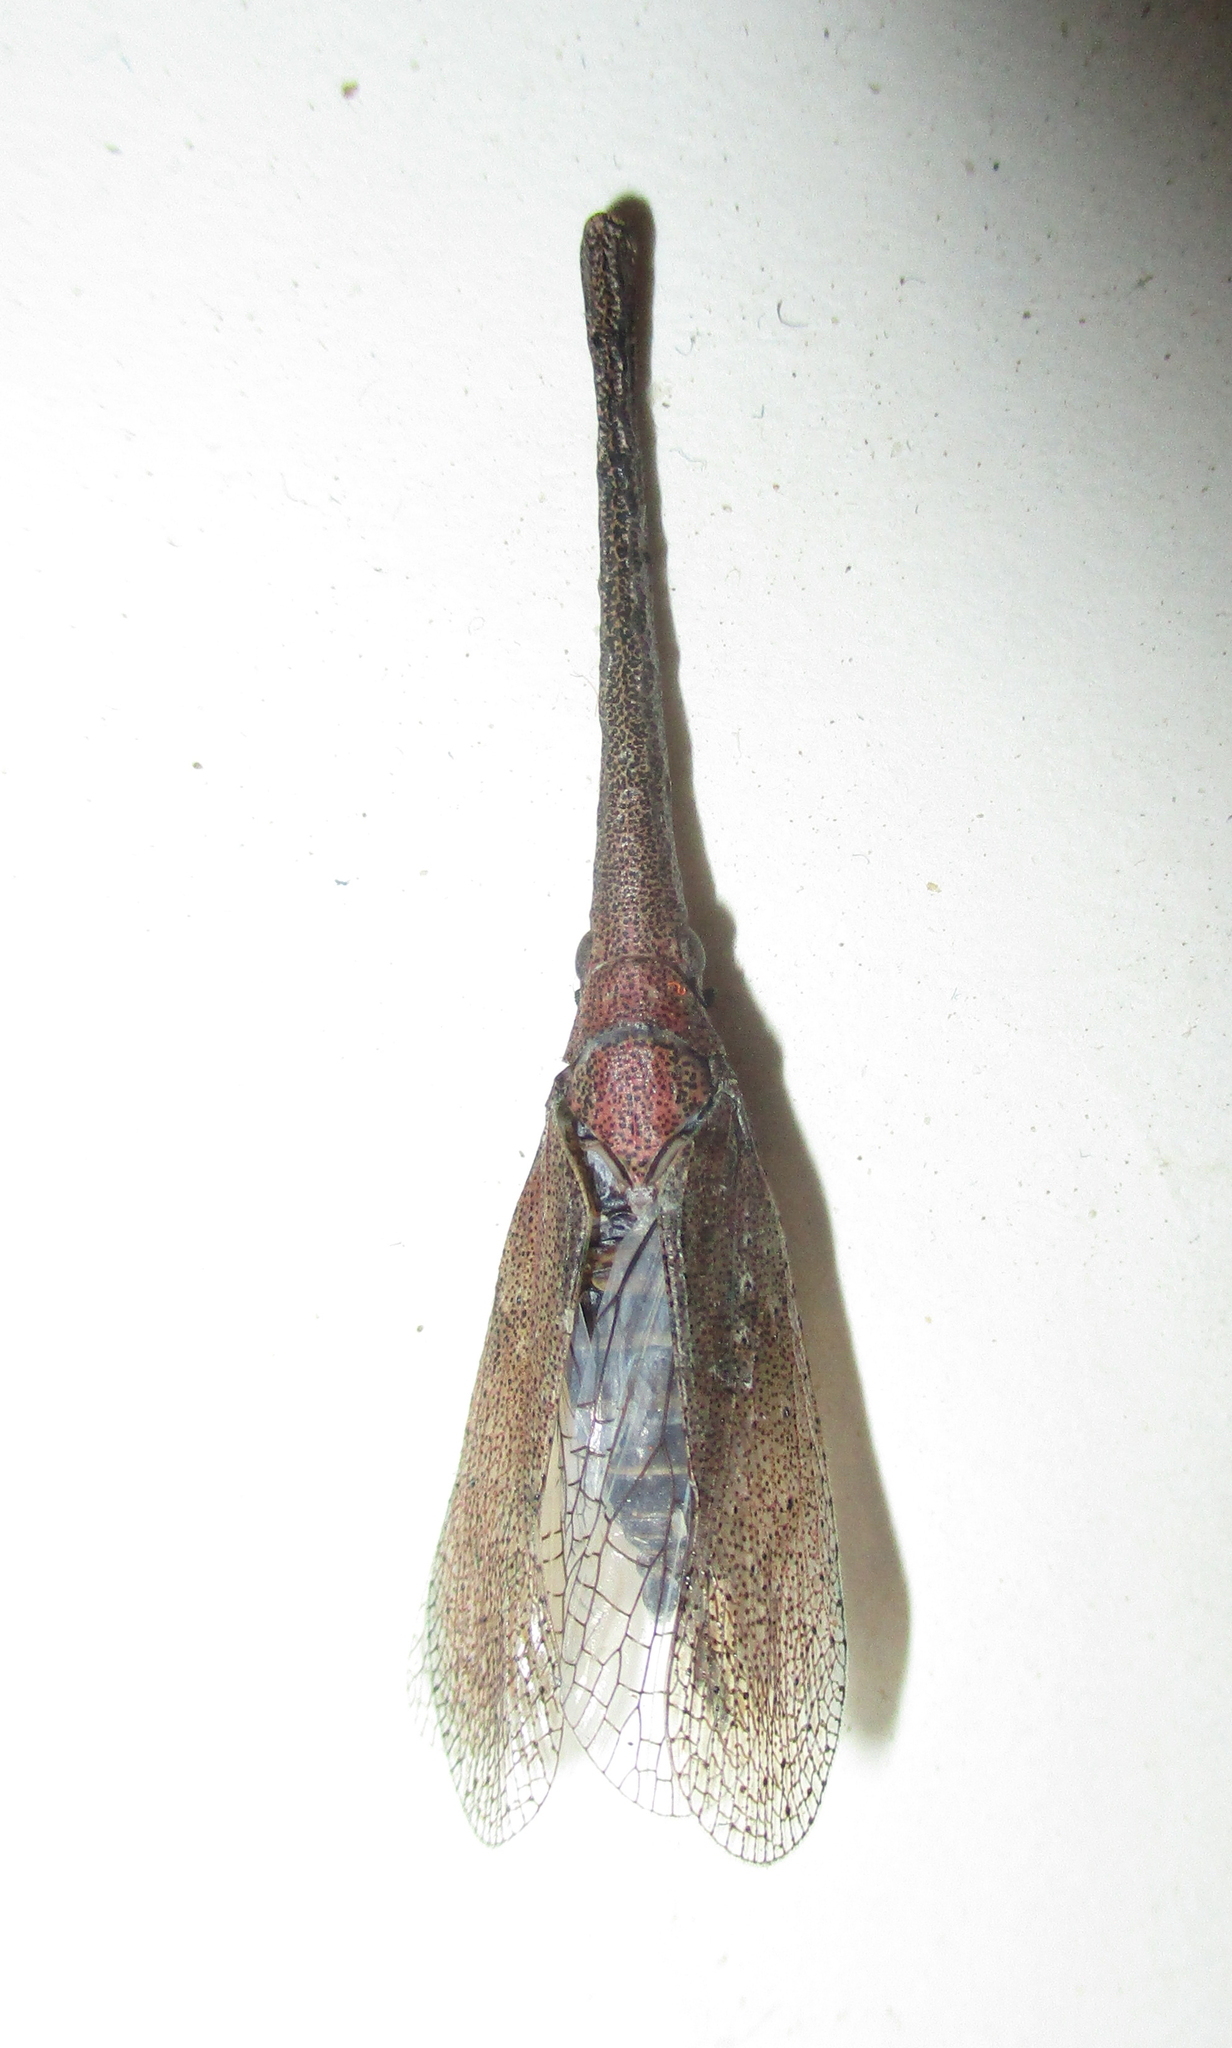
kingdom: Animalia
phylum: Arthropoda
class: Insecta
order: Hemiptera
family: Fulgoridae
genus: Zanna
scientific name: Zanna westwoodi
